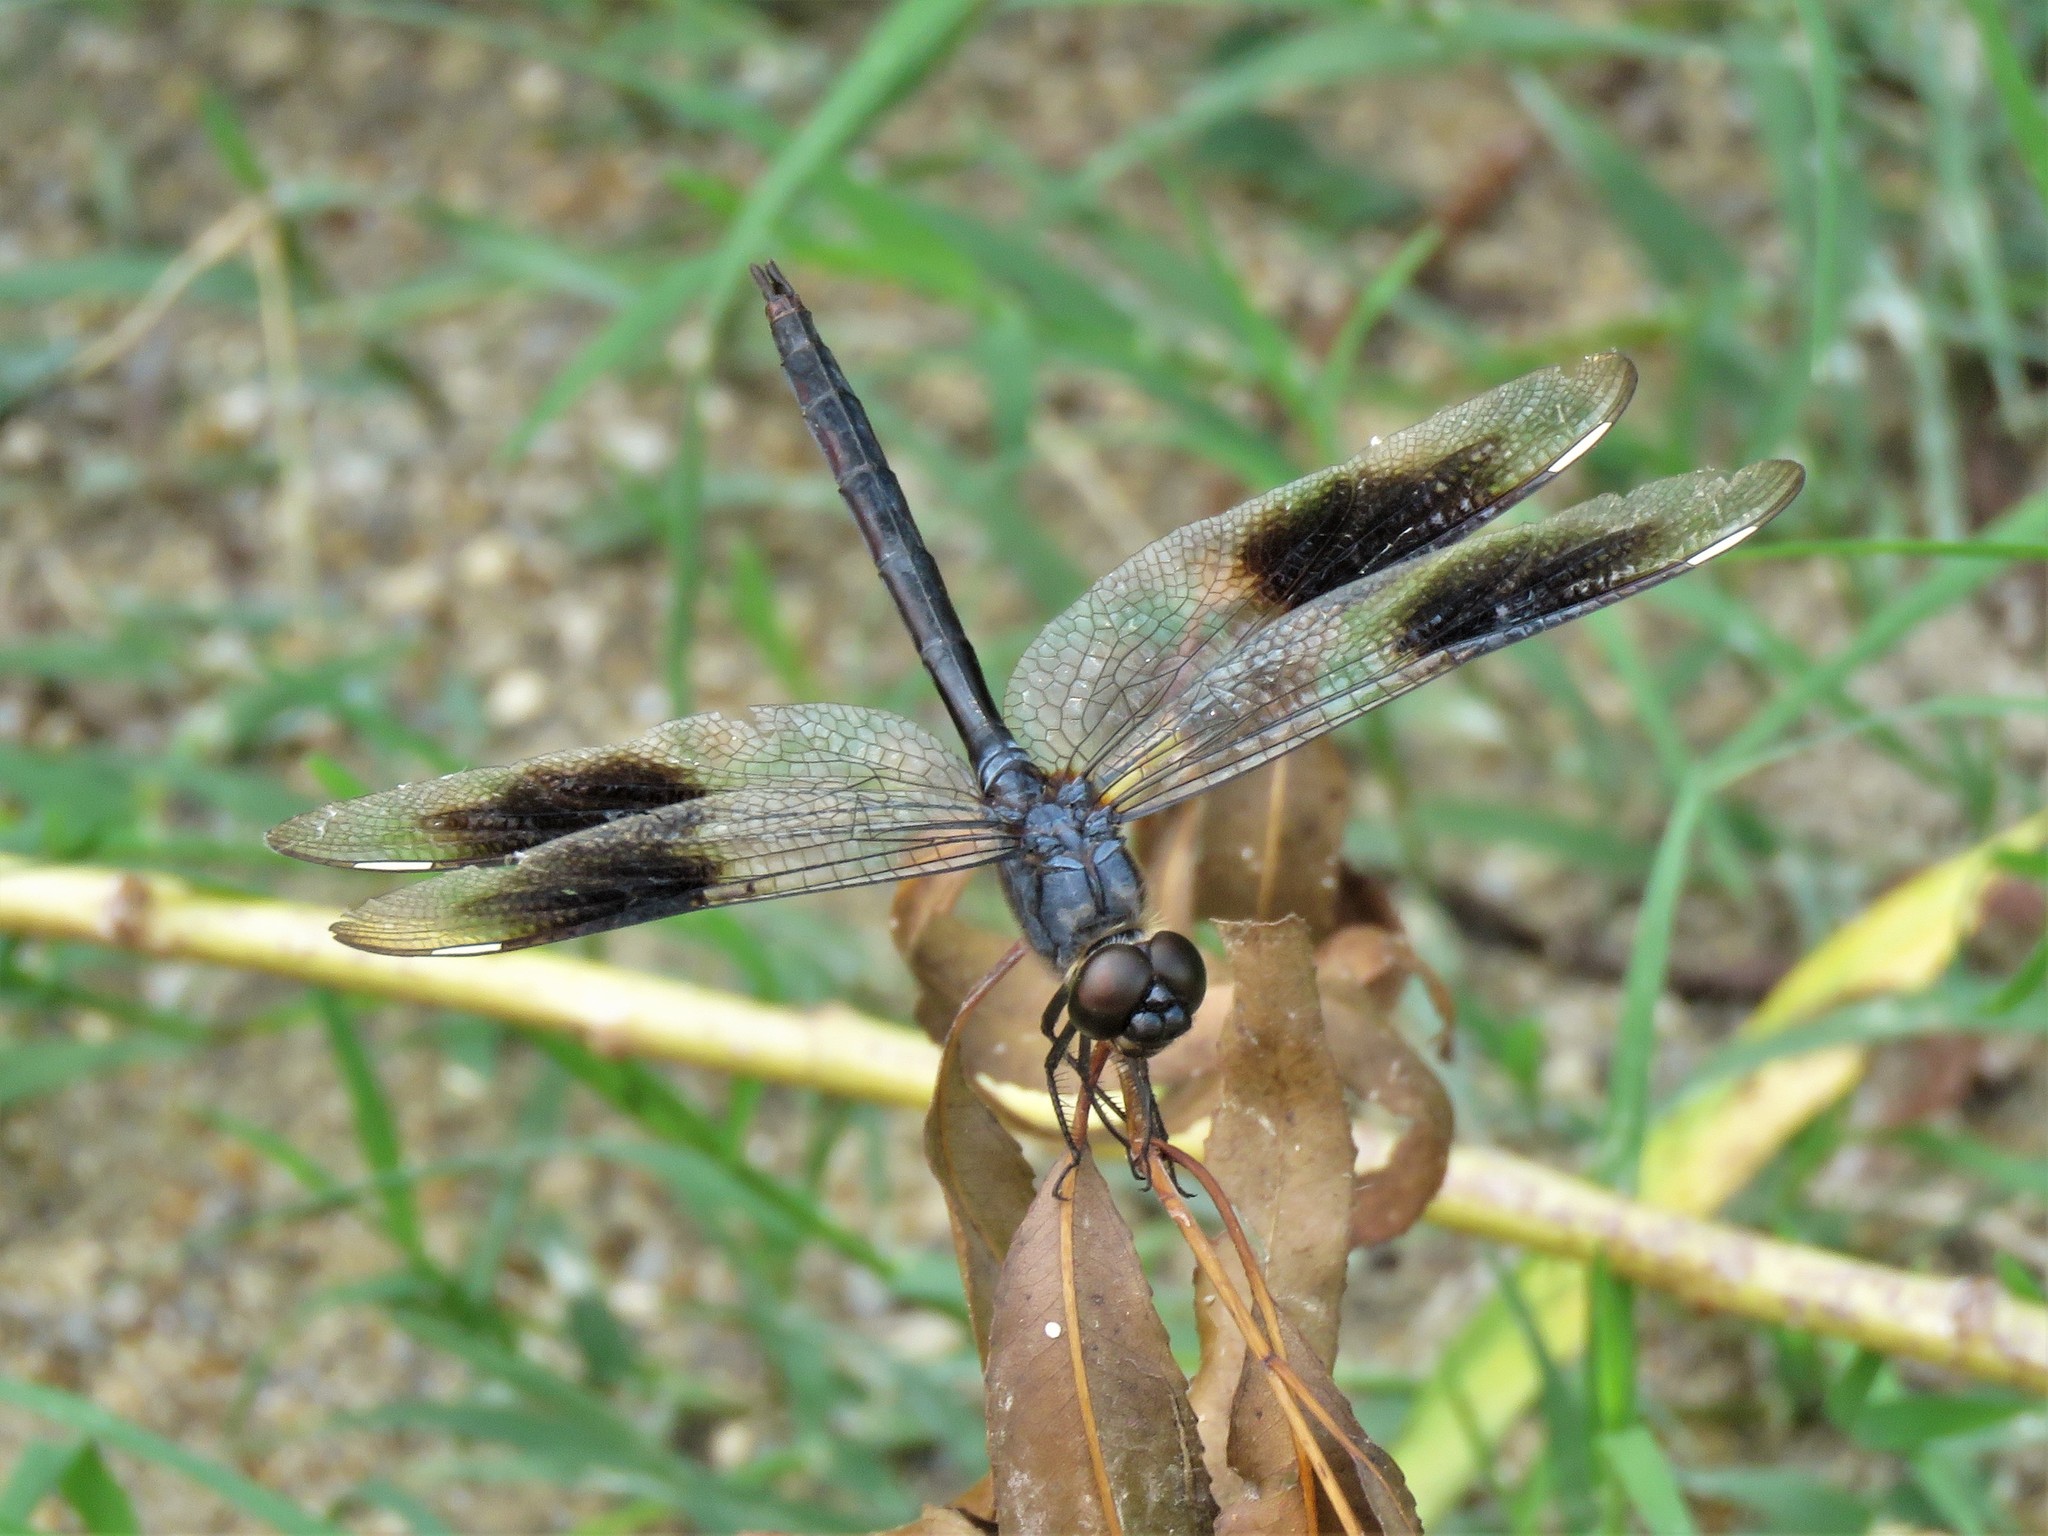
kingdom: Animalia
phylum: Arthropoda
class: Insecta
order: Odonata
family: Libellulidae
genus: Brachymesia
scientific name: Brachymesia gravida
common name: Four-spotted pennant
